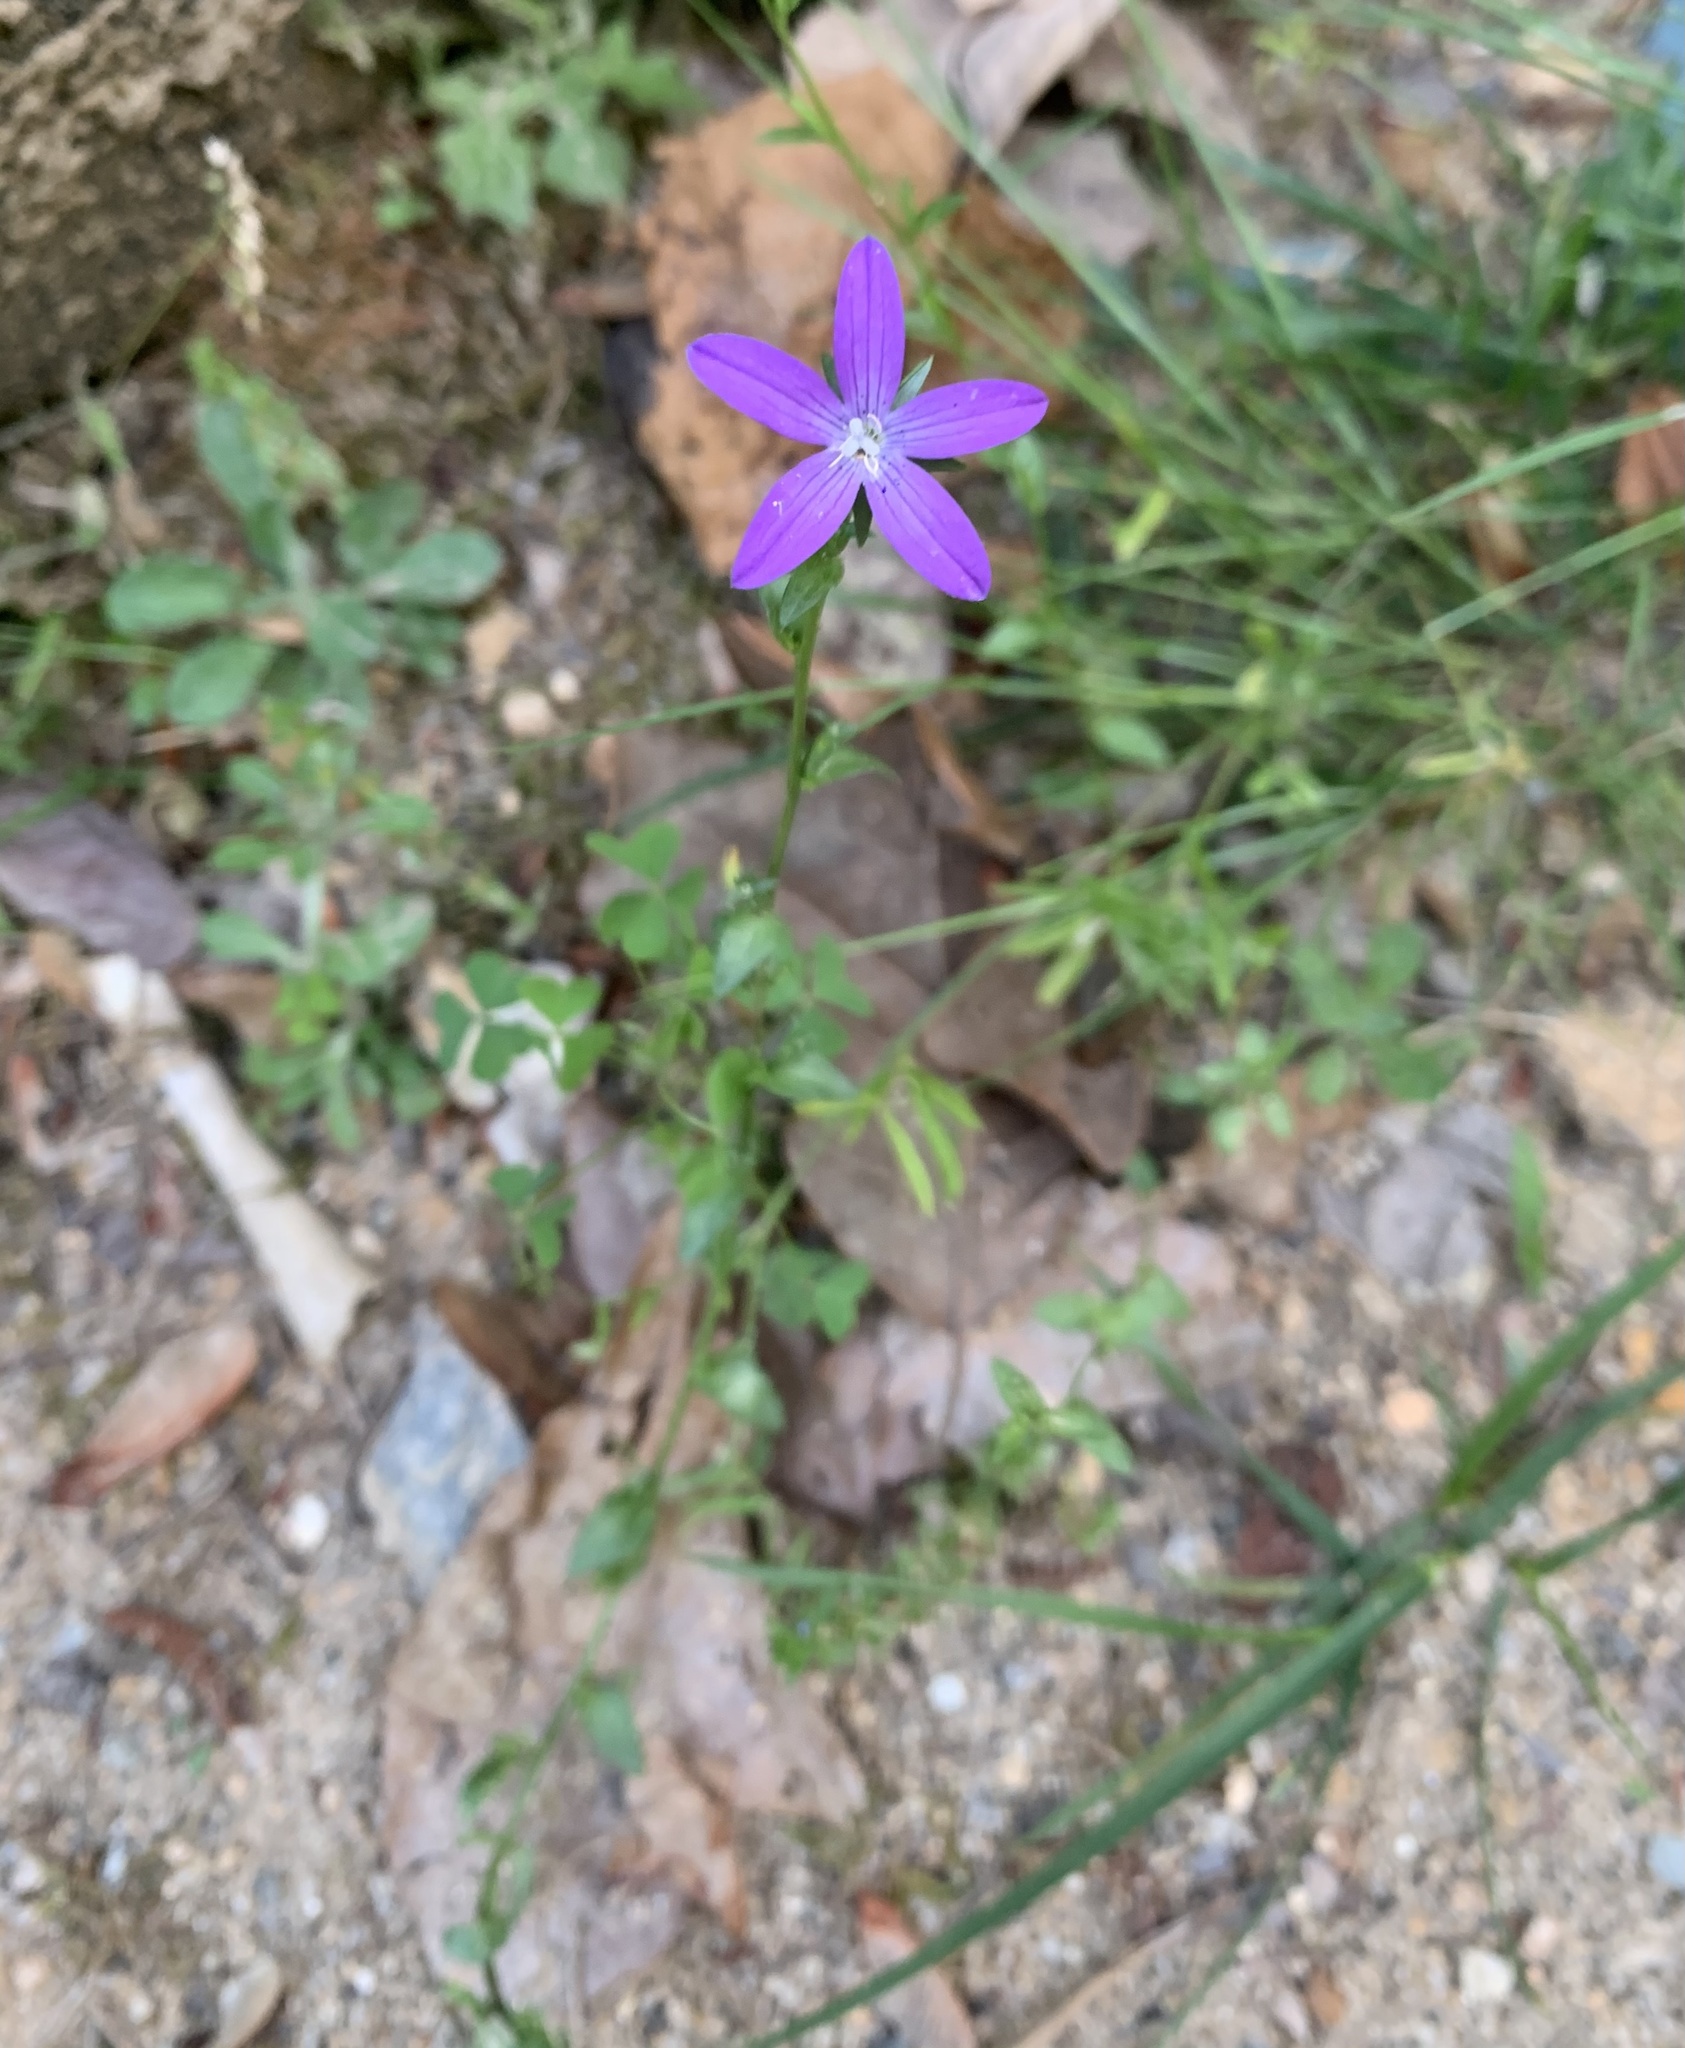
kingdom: Plantae
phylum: Tracheophyta
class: Magnoliopsida
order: Asterales
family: Campanulaceae
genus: Triodanis
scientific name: Triodanis biflora
